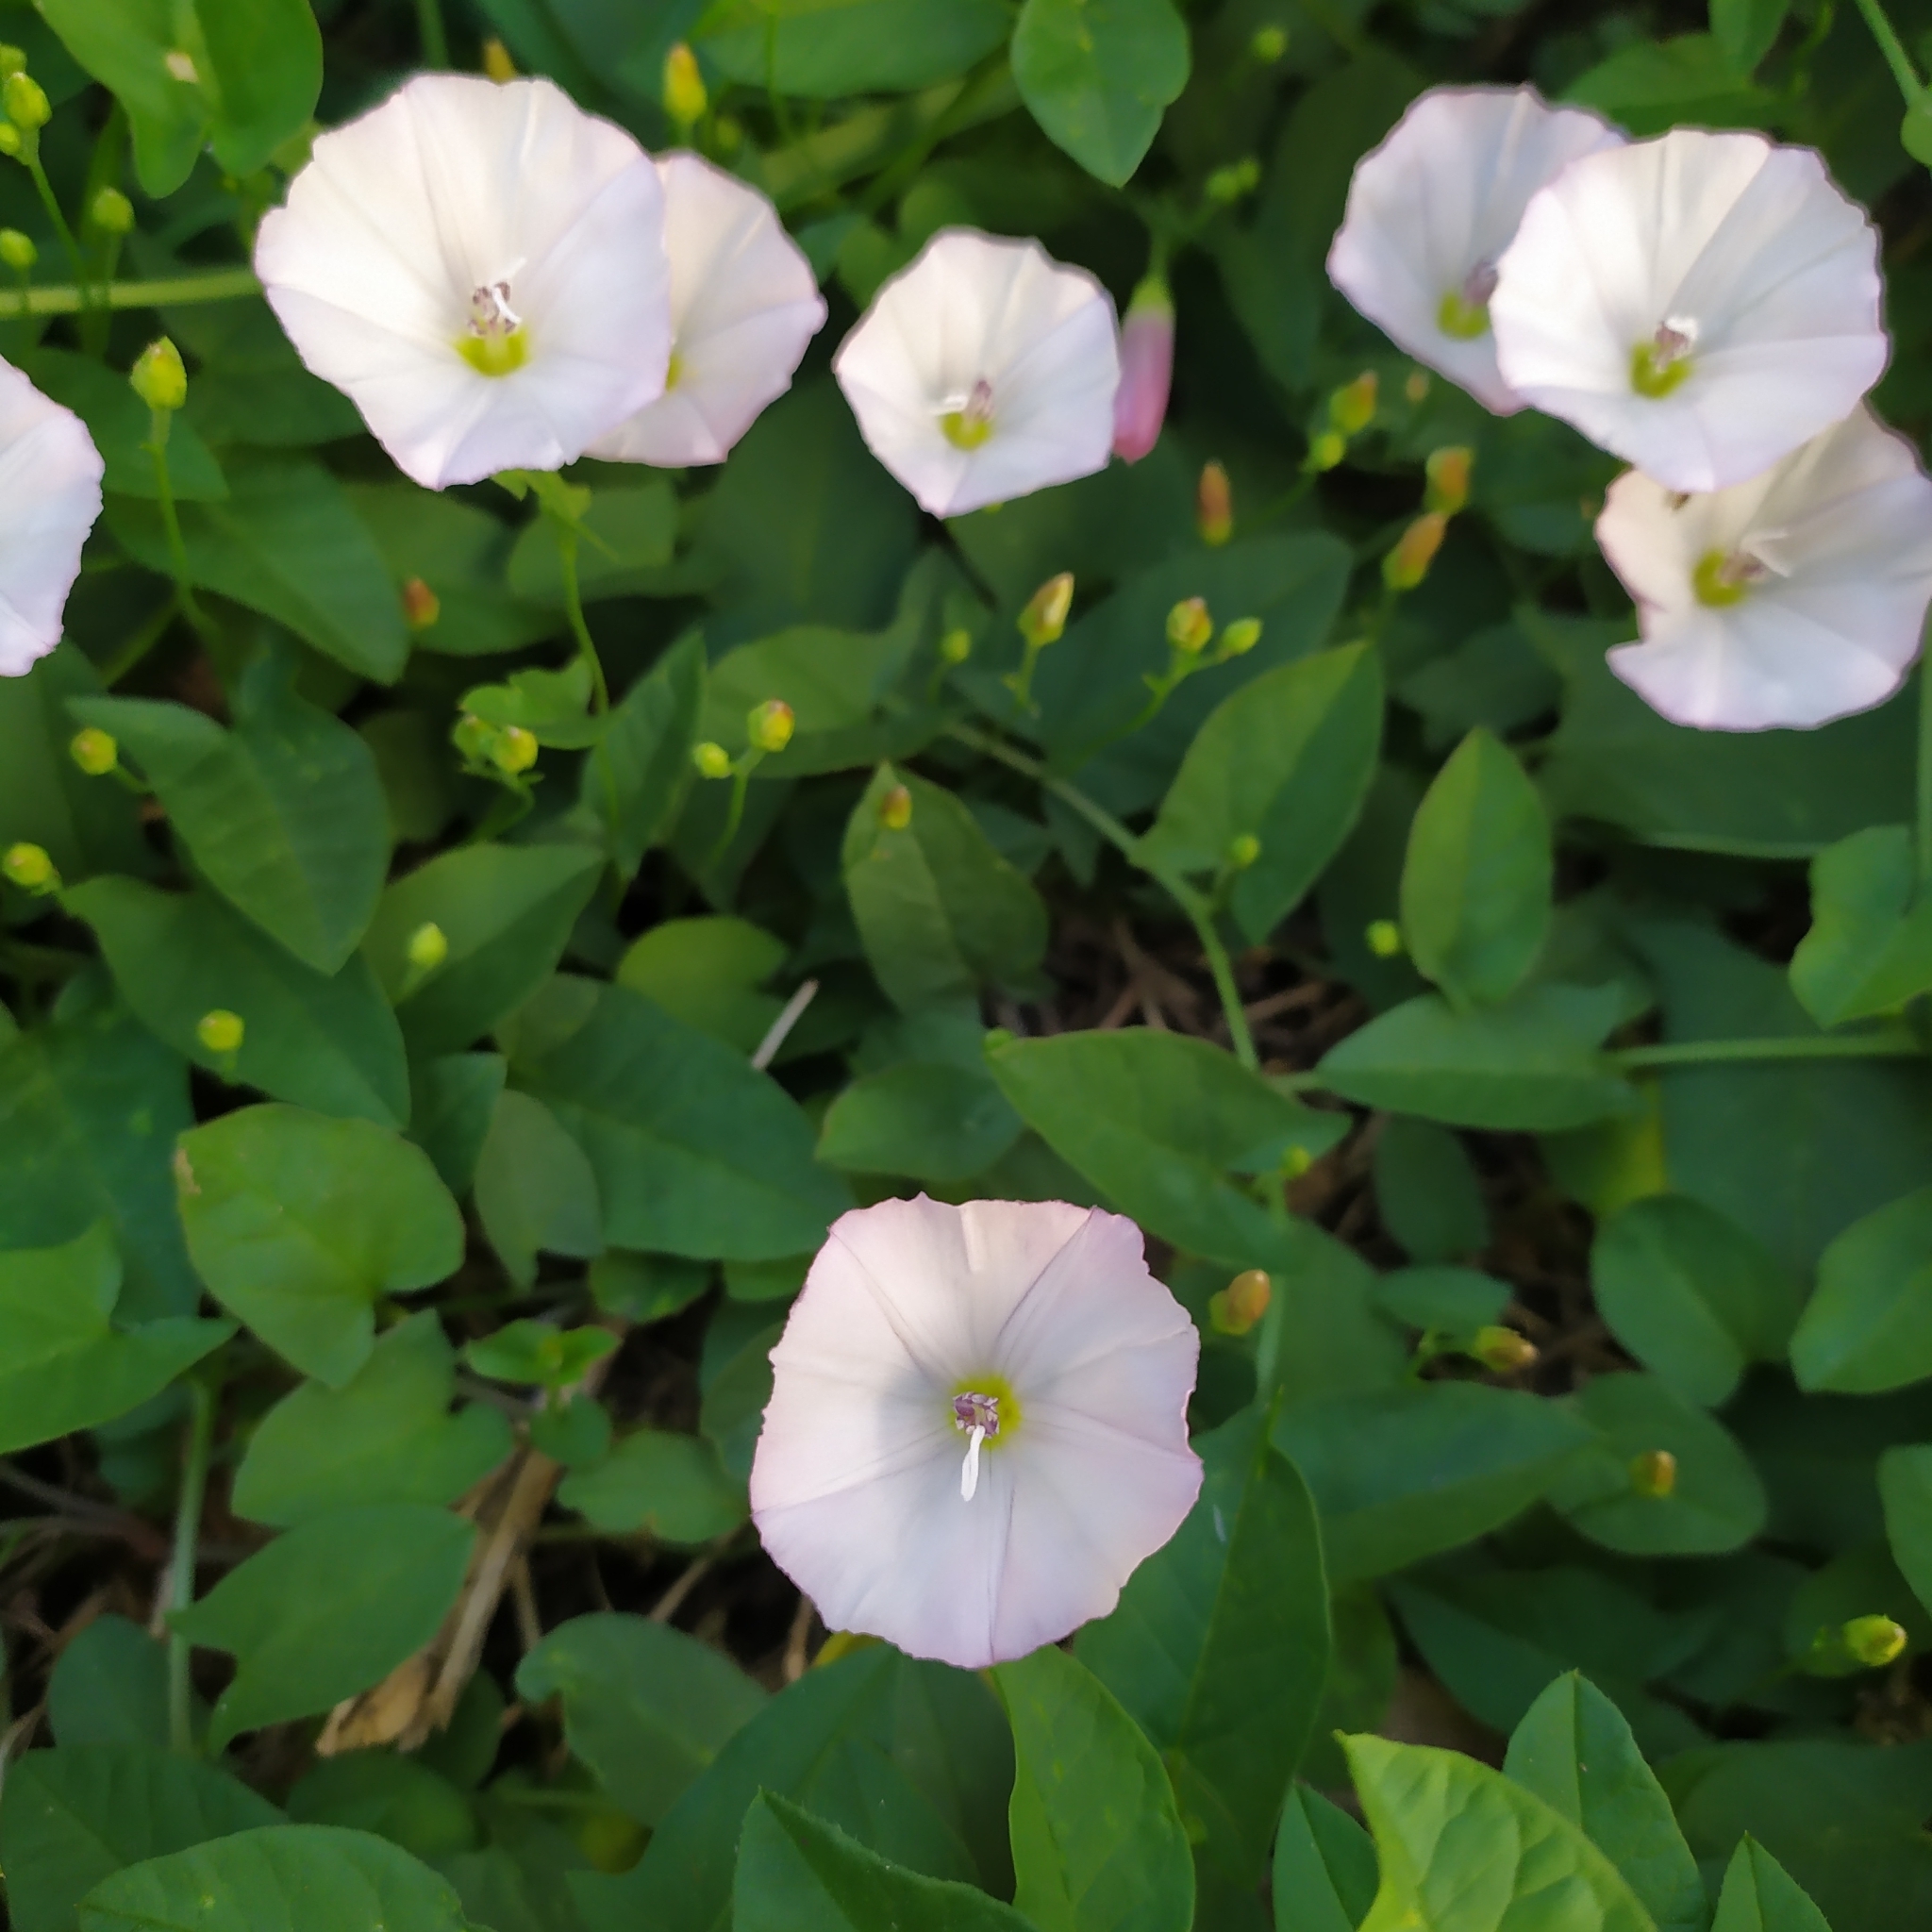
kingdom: Plantae
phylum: Tracheophyta
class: Magnoliopsida
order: Solanales
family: Convolvulaceae
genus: Convolvulus
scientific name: Convolvulus arvensis
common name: Field bindweed
